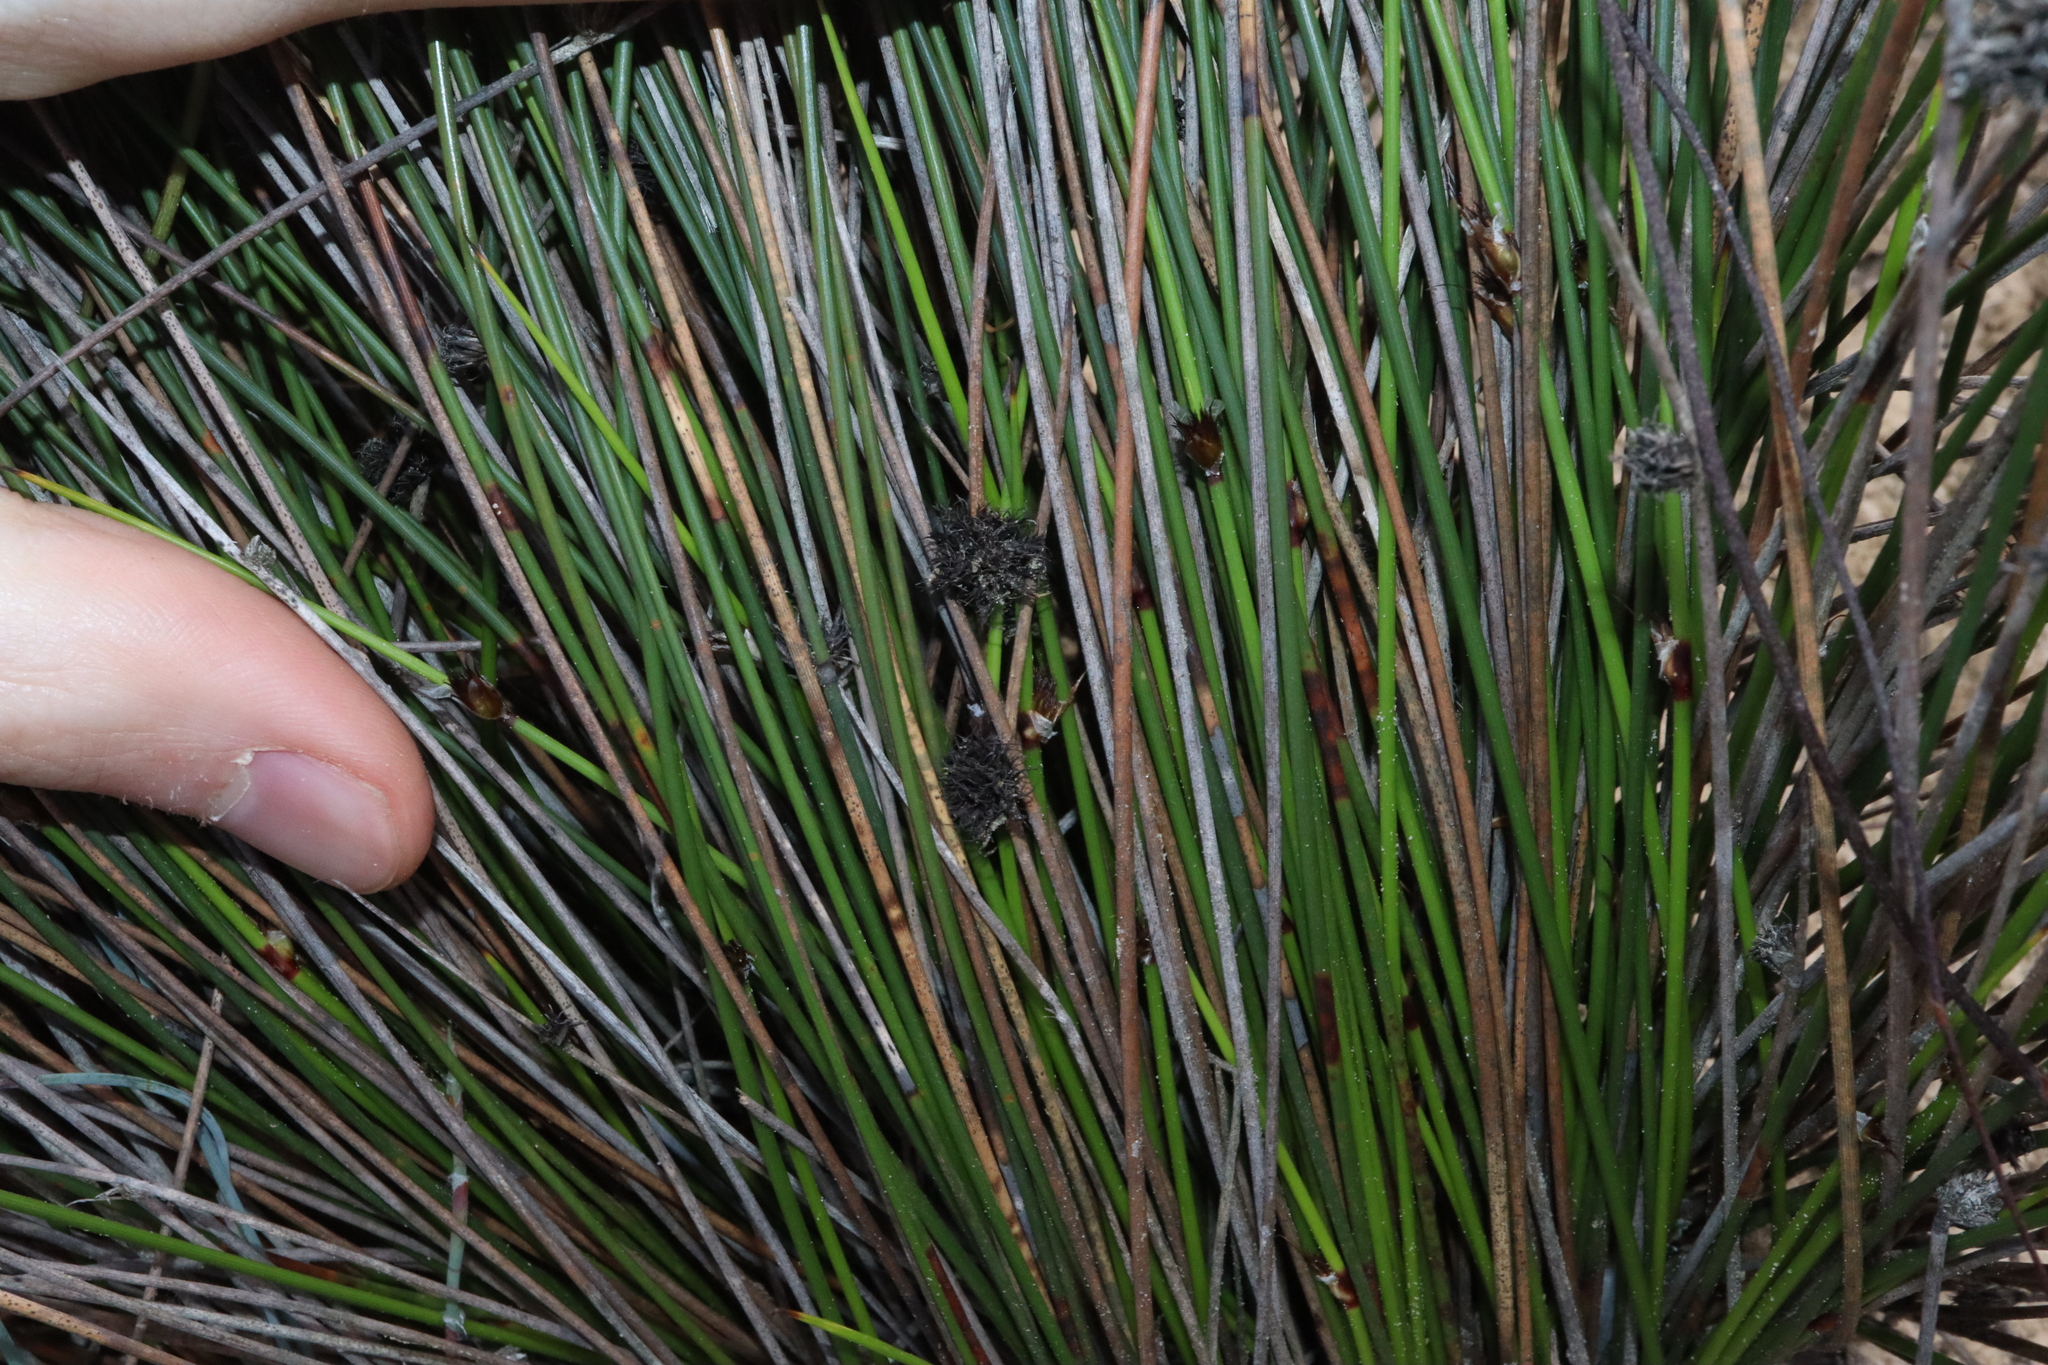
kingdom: Plantae
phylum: Tracheophyta
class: Liliopsida
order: Poales
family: Cyperaceae
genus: Mesomelaena
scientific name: Mesomelaena stygia
